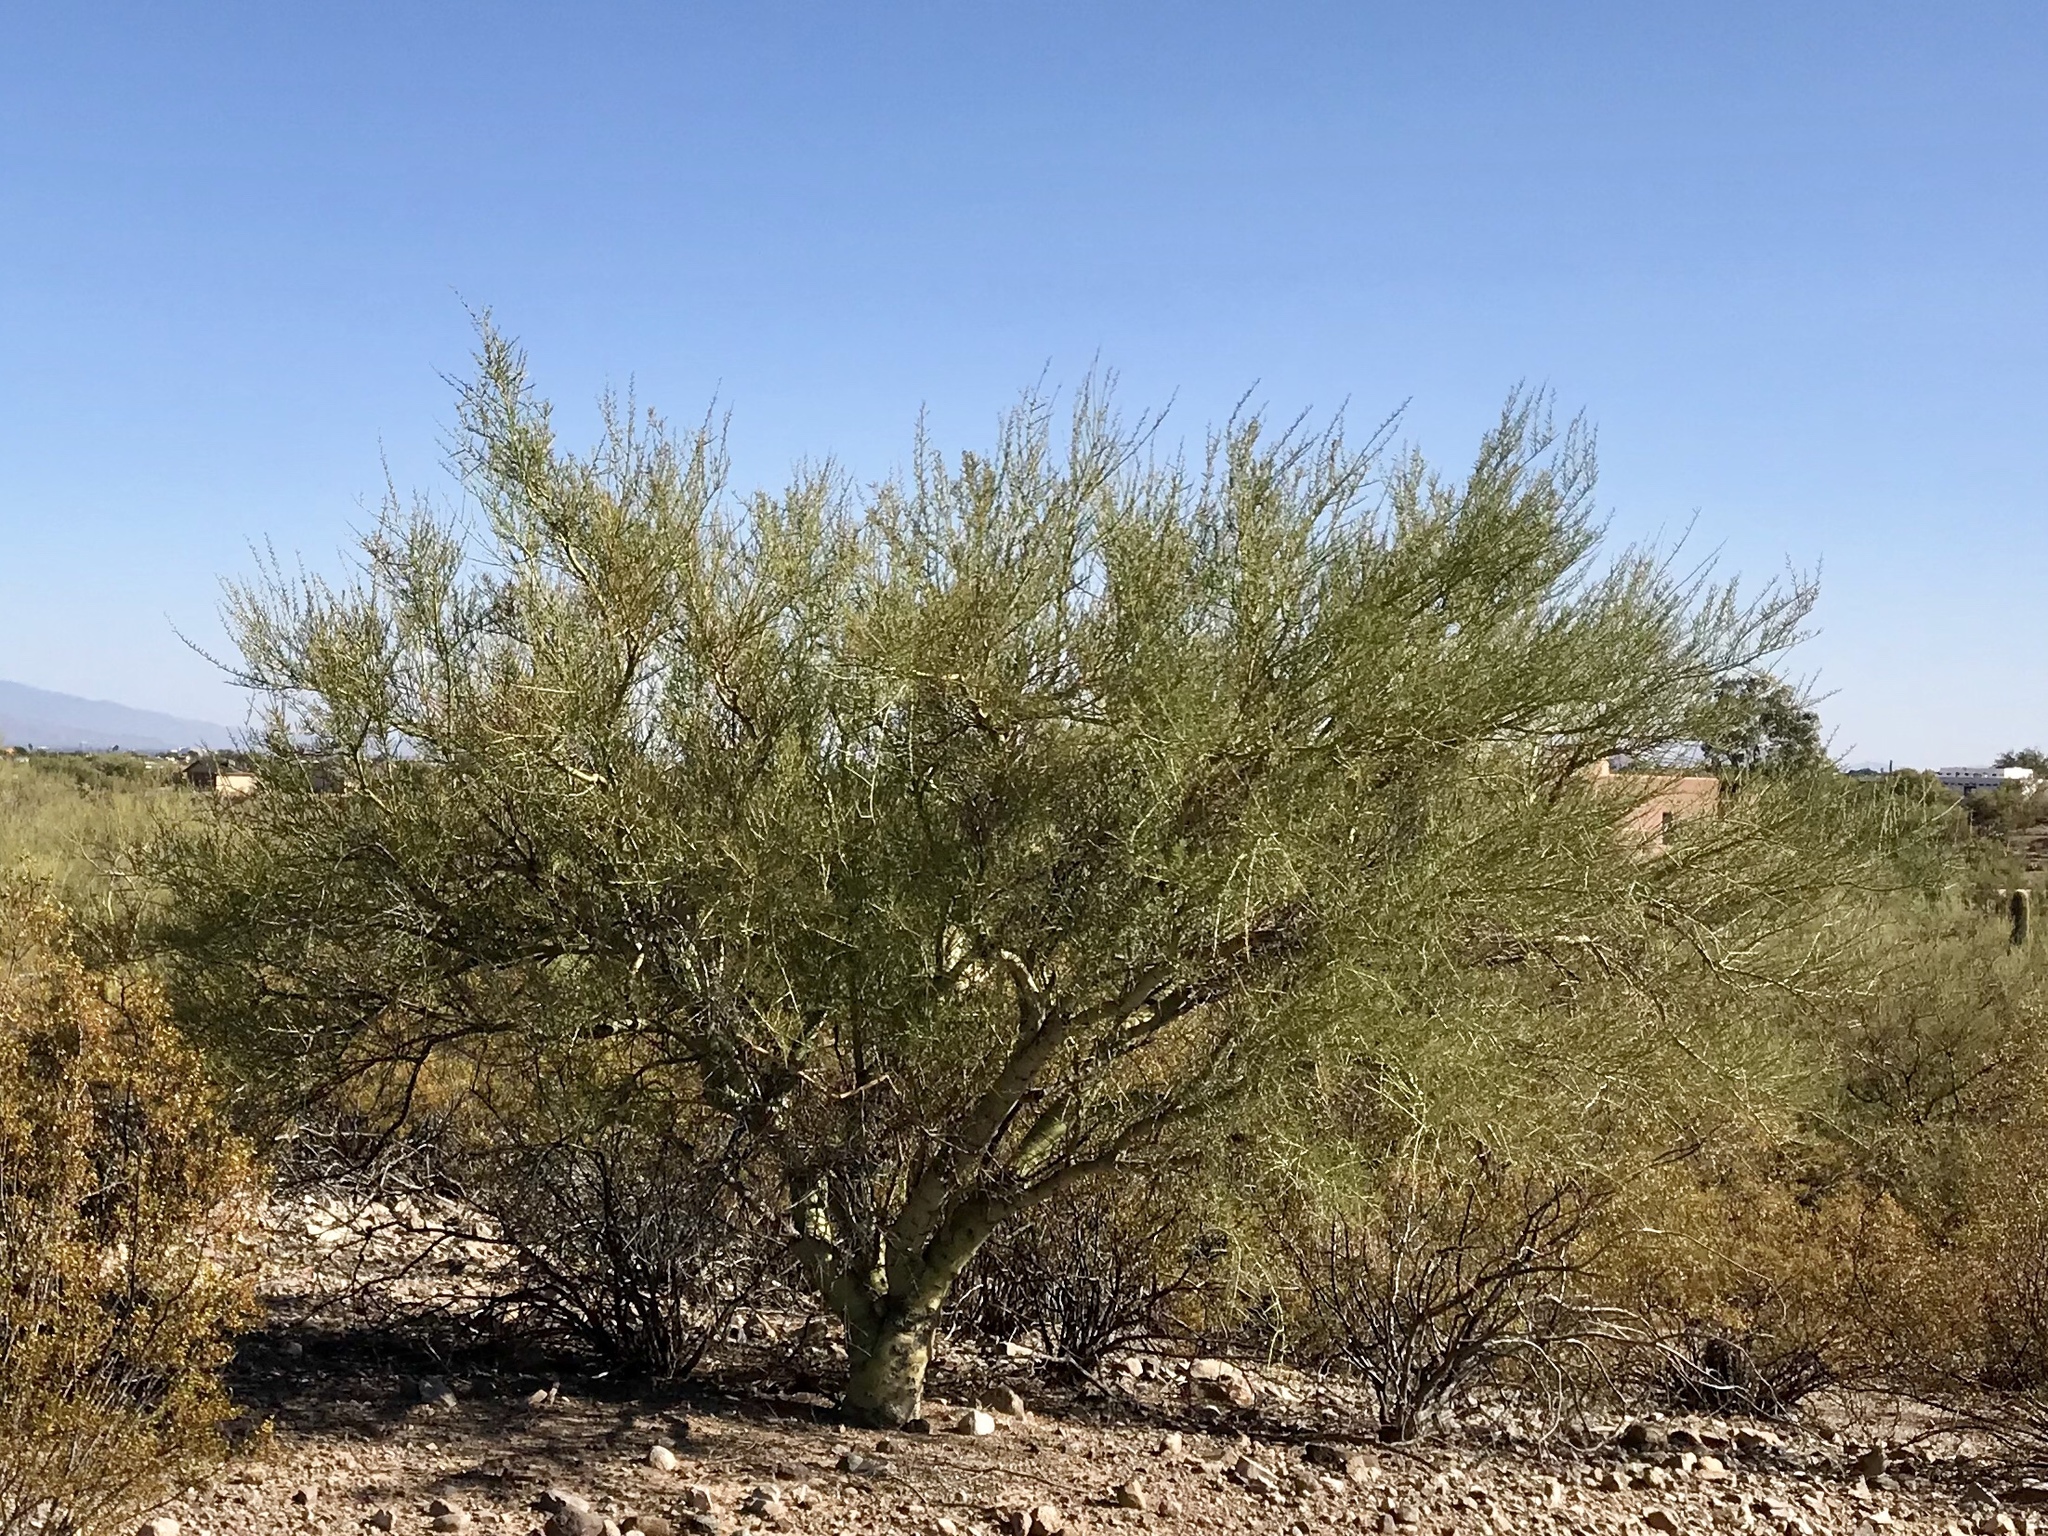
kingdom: Plantae
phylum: Tracheophyta
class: Magnoliopsida
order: Fabales
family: Fabaceae
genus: Parkinsonia
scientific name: Parkinsonia microphylla
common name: Yellow paloverde
